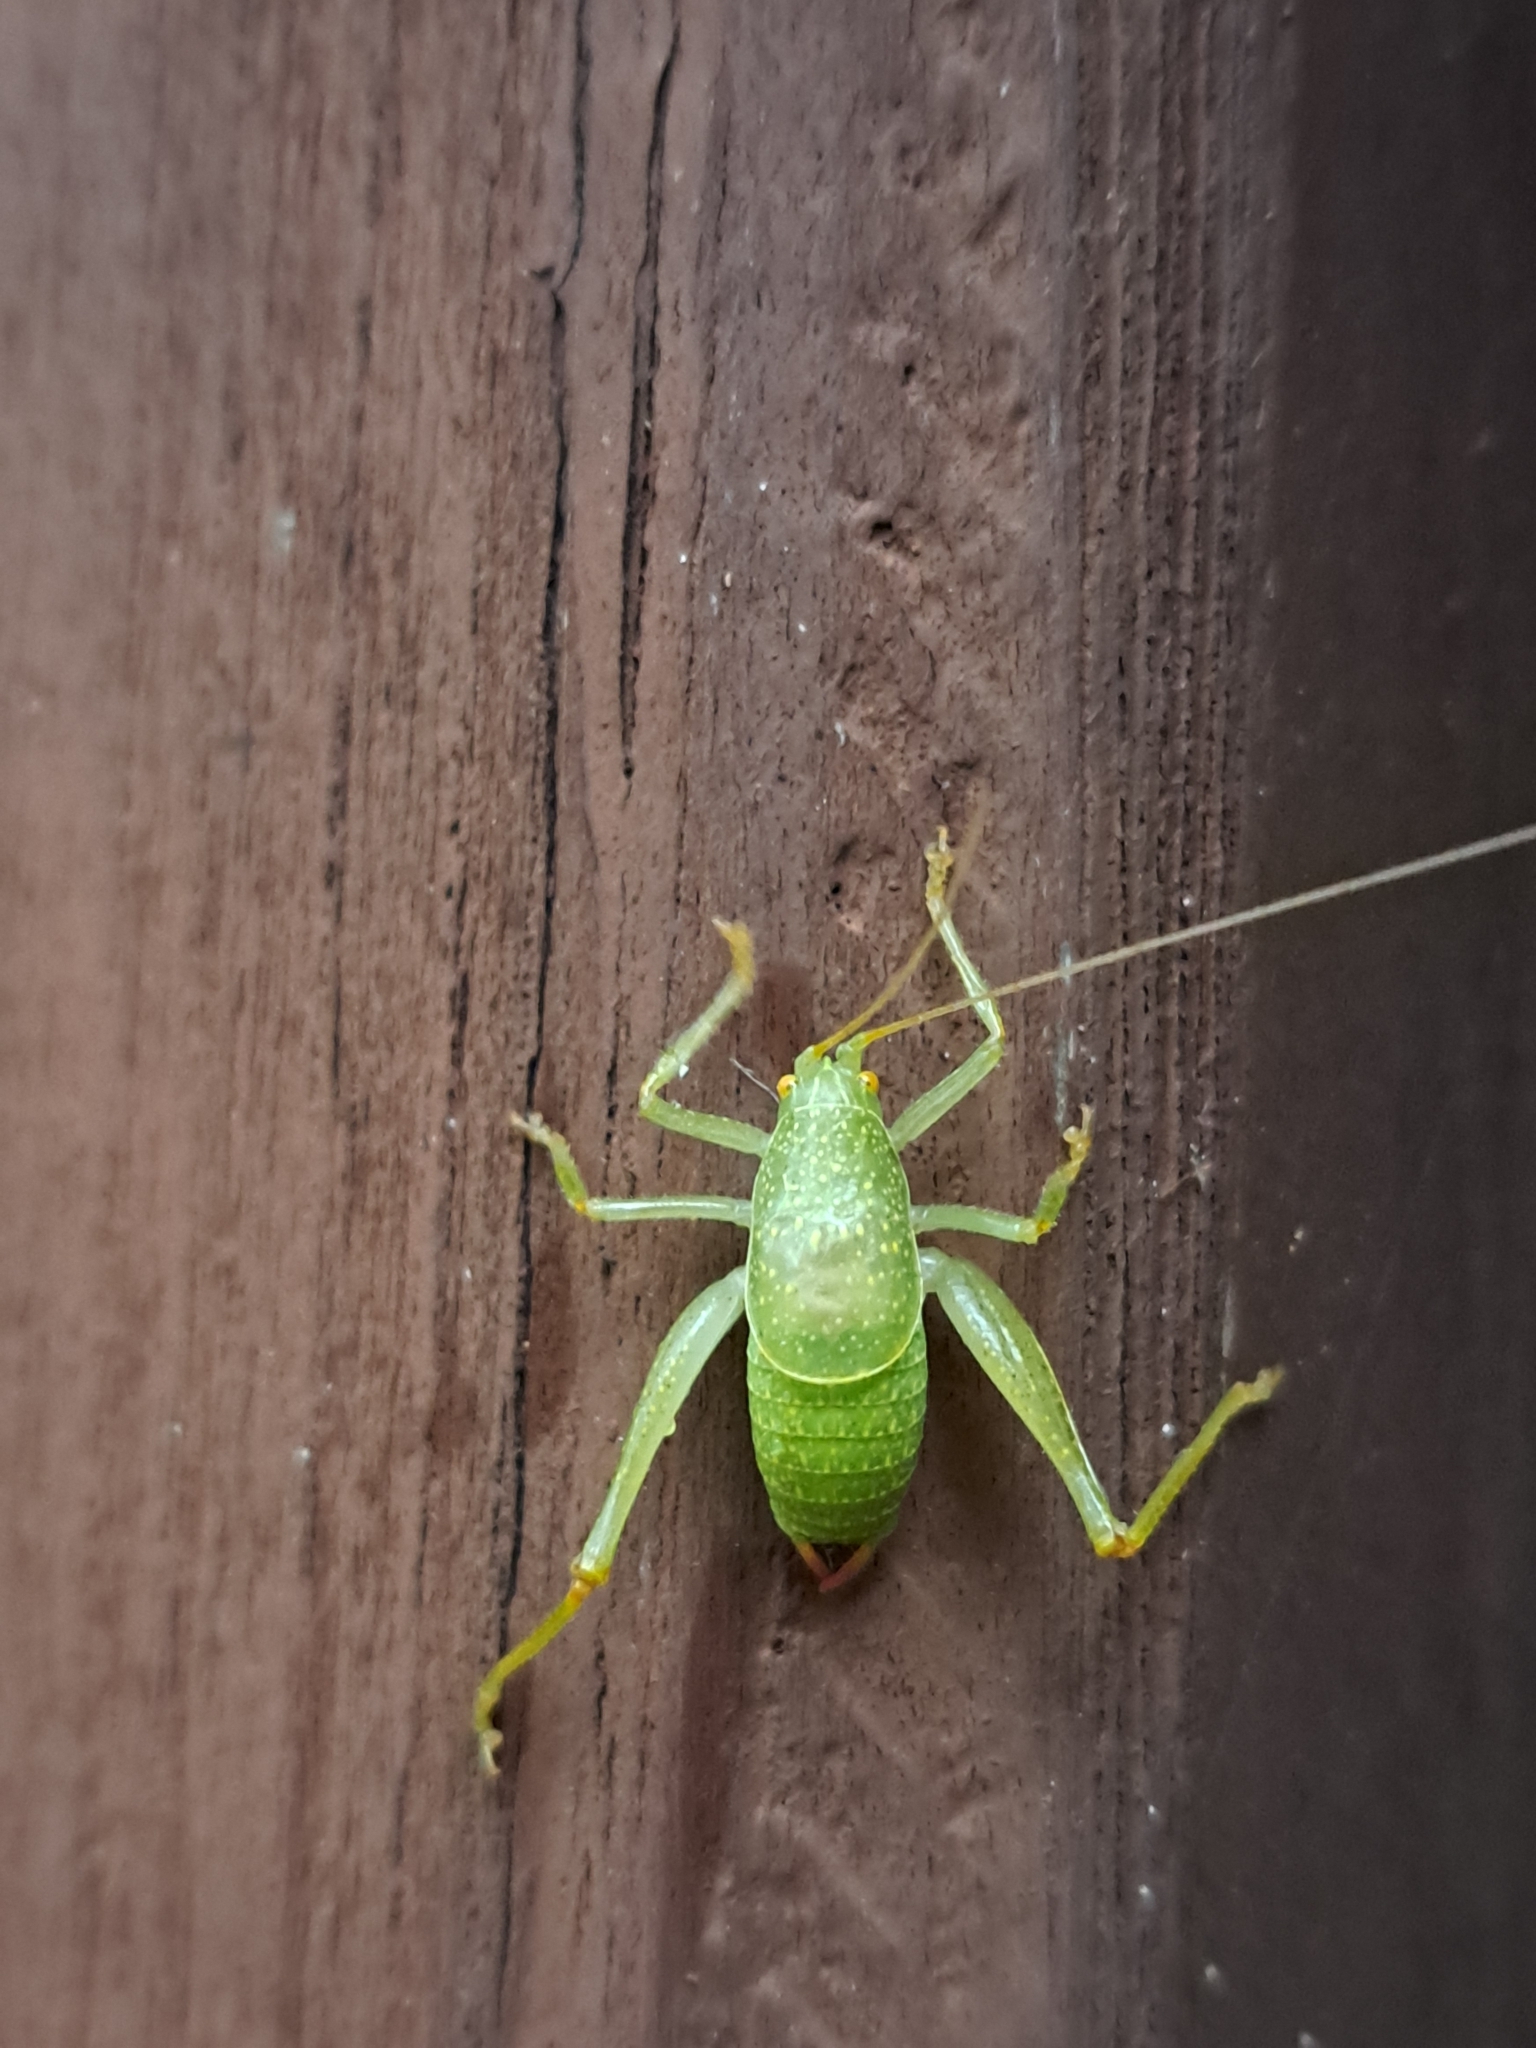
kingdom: Animalia
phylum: Arthropoda
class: Insecta
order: Orthoptera
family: Tettigoniidae
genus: Cyrtaspis
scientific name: Cyrtaspis scutata
